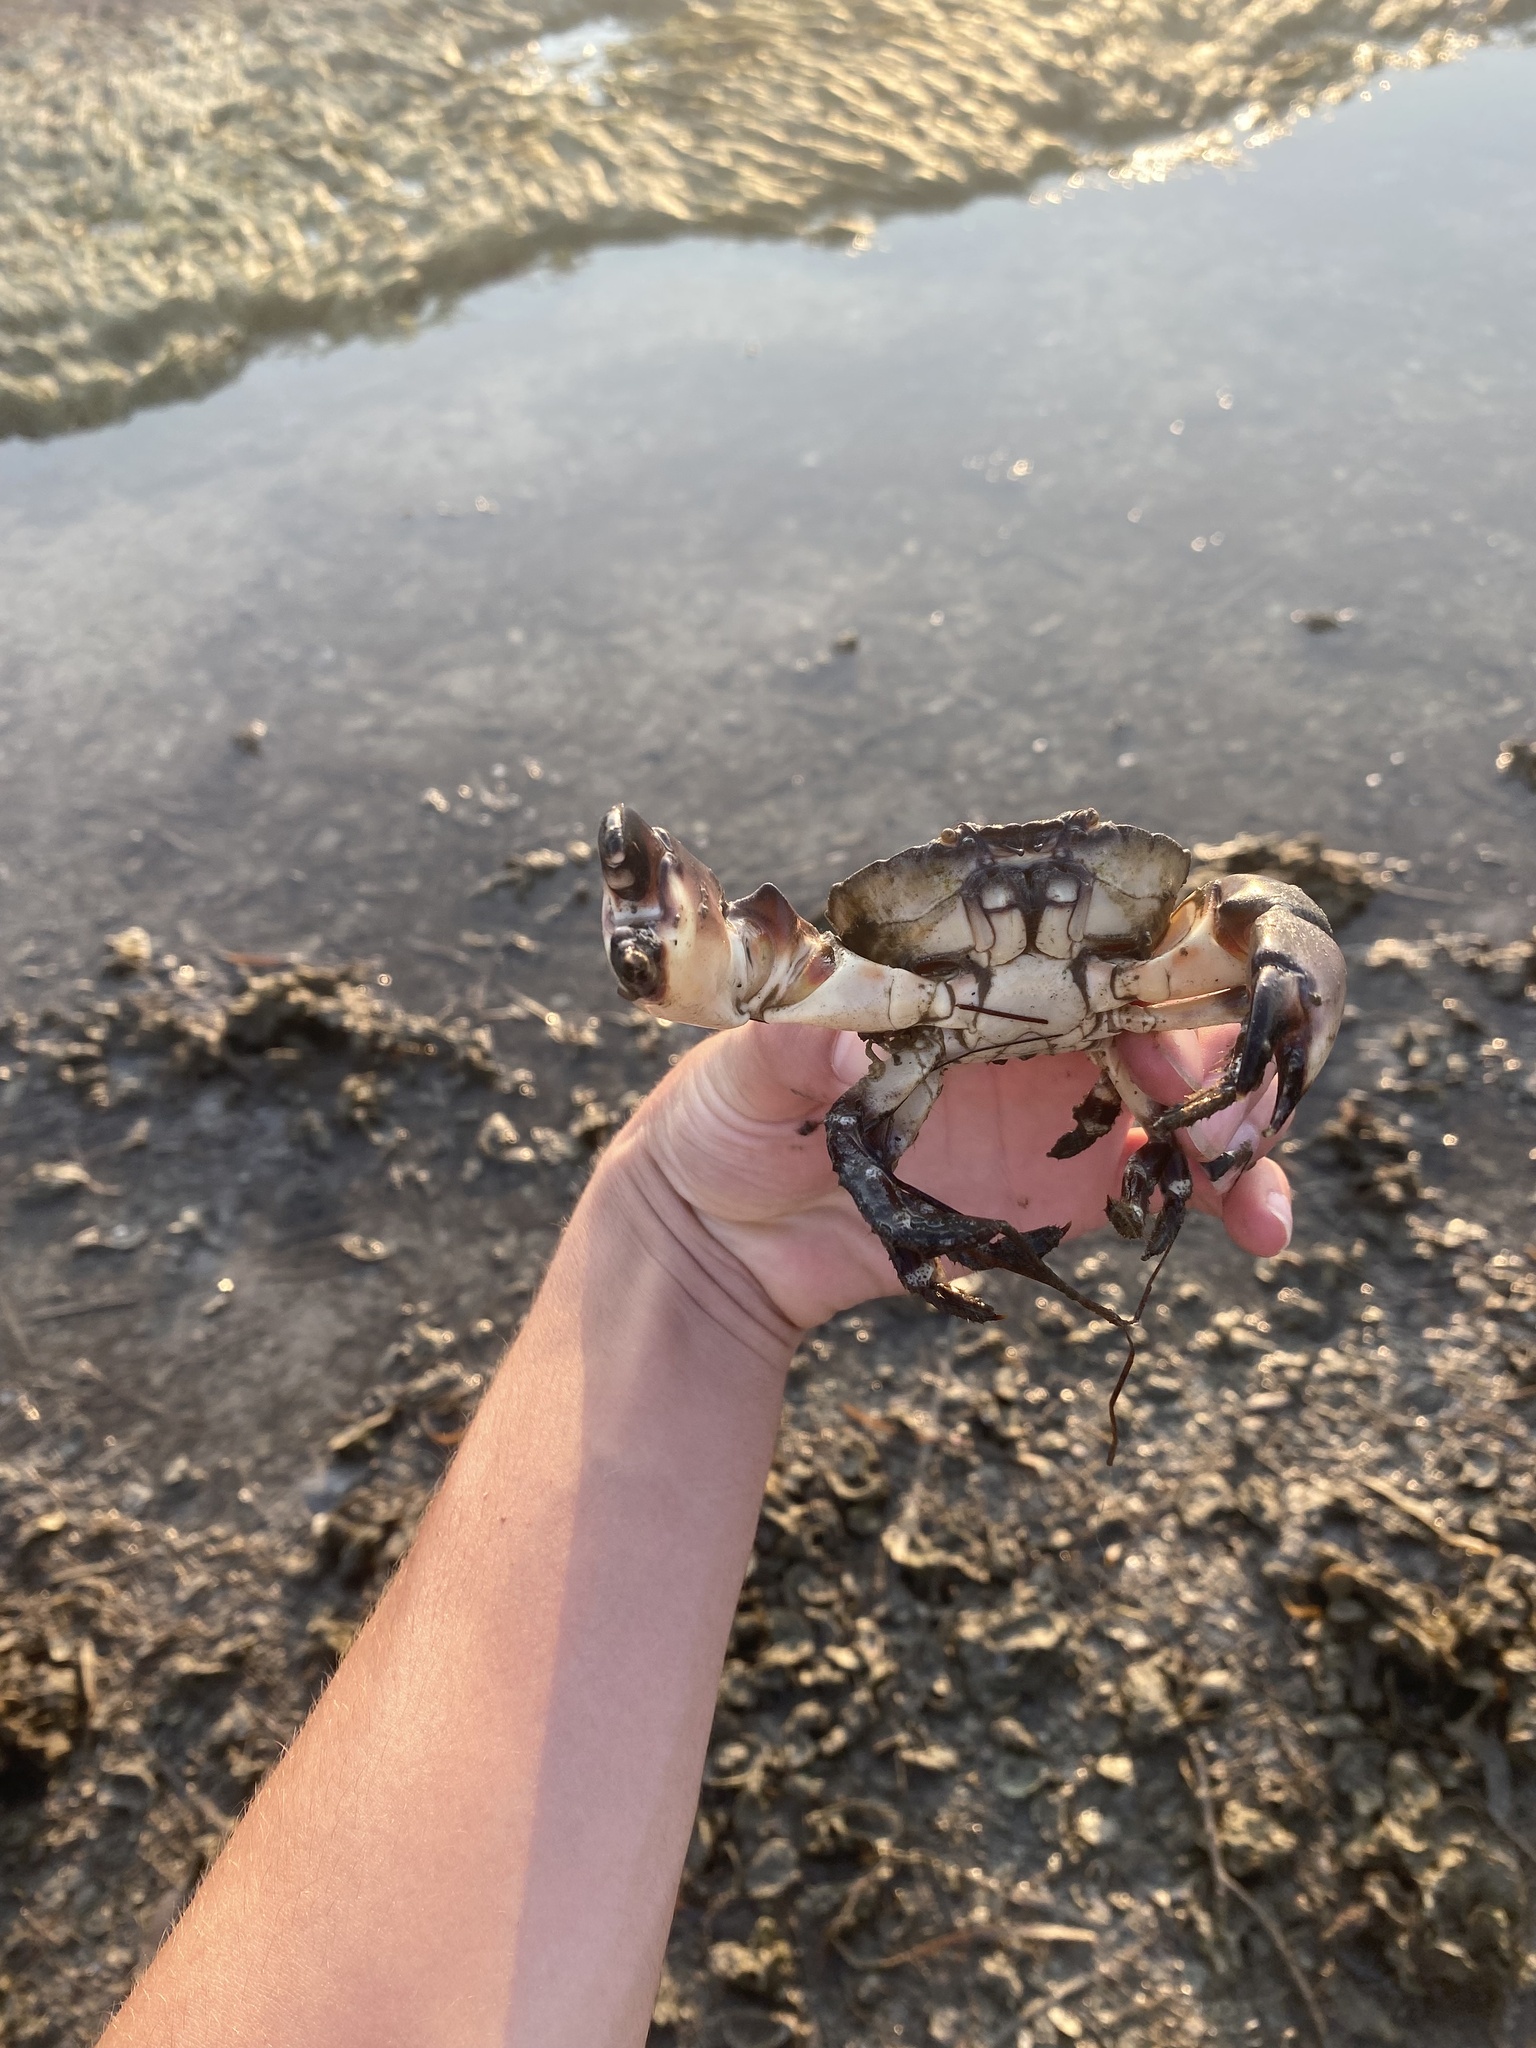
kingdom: Animalia
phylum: Arthropoda
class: Malacostraca
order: Decapoda
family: Menippidae
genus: Menippe
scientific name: Menippe mercenaria
